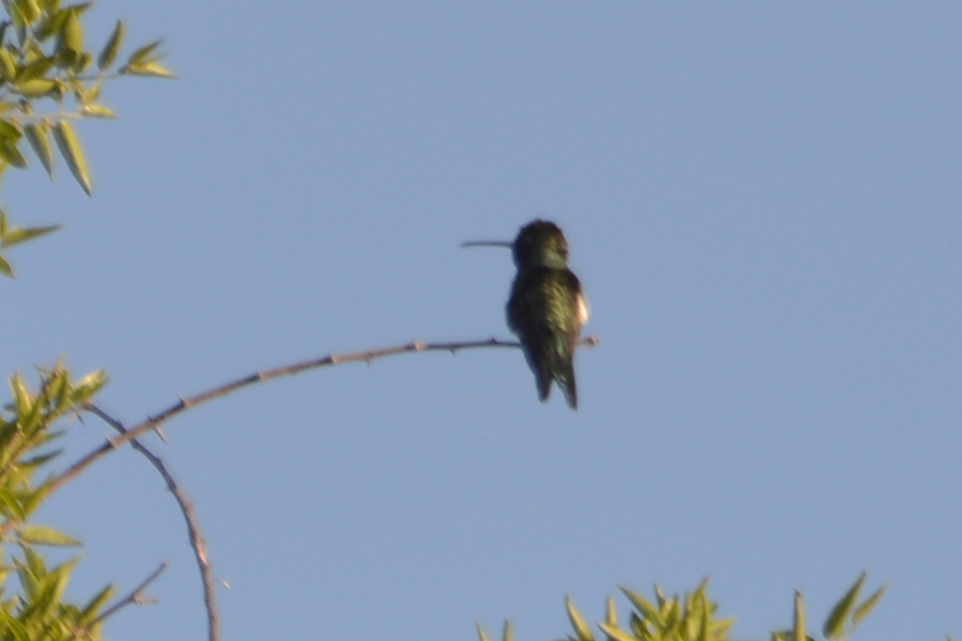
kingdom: Animalia
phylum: Chordata
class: Aves
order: Apodiformes
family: Trochilidae
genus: Heliomaster
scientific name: Heliomaster furcifer
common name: Blue-tufted starthroat
